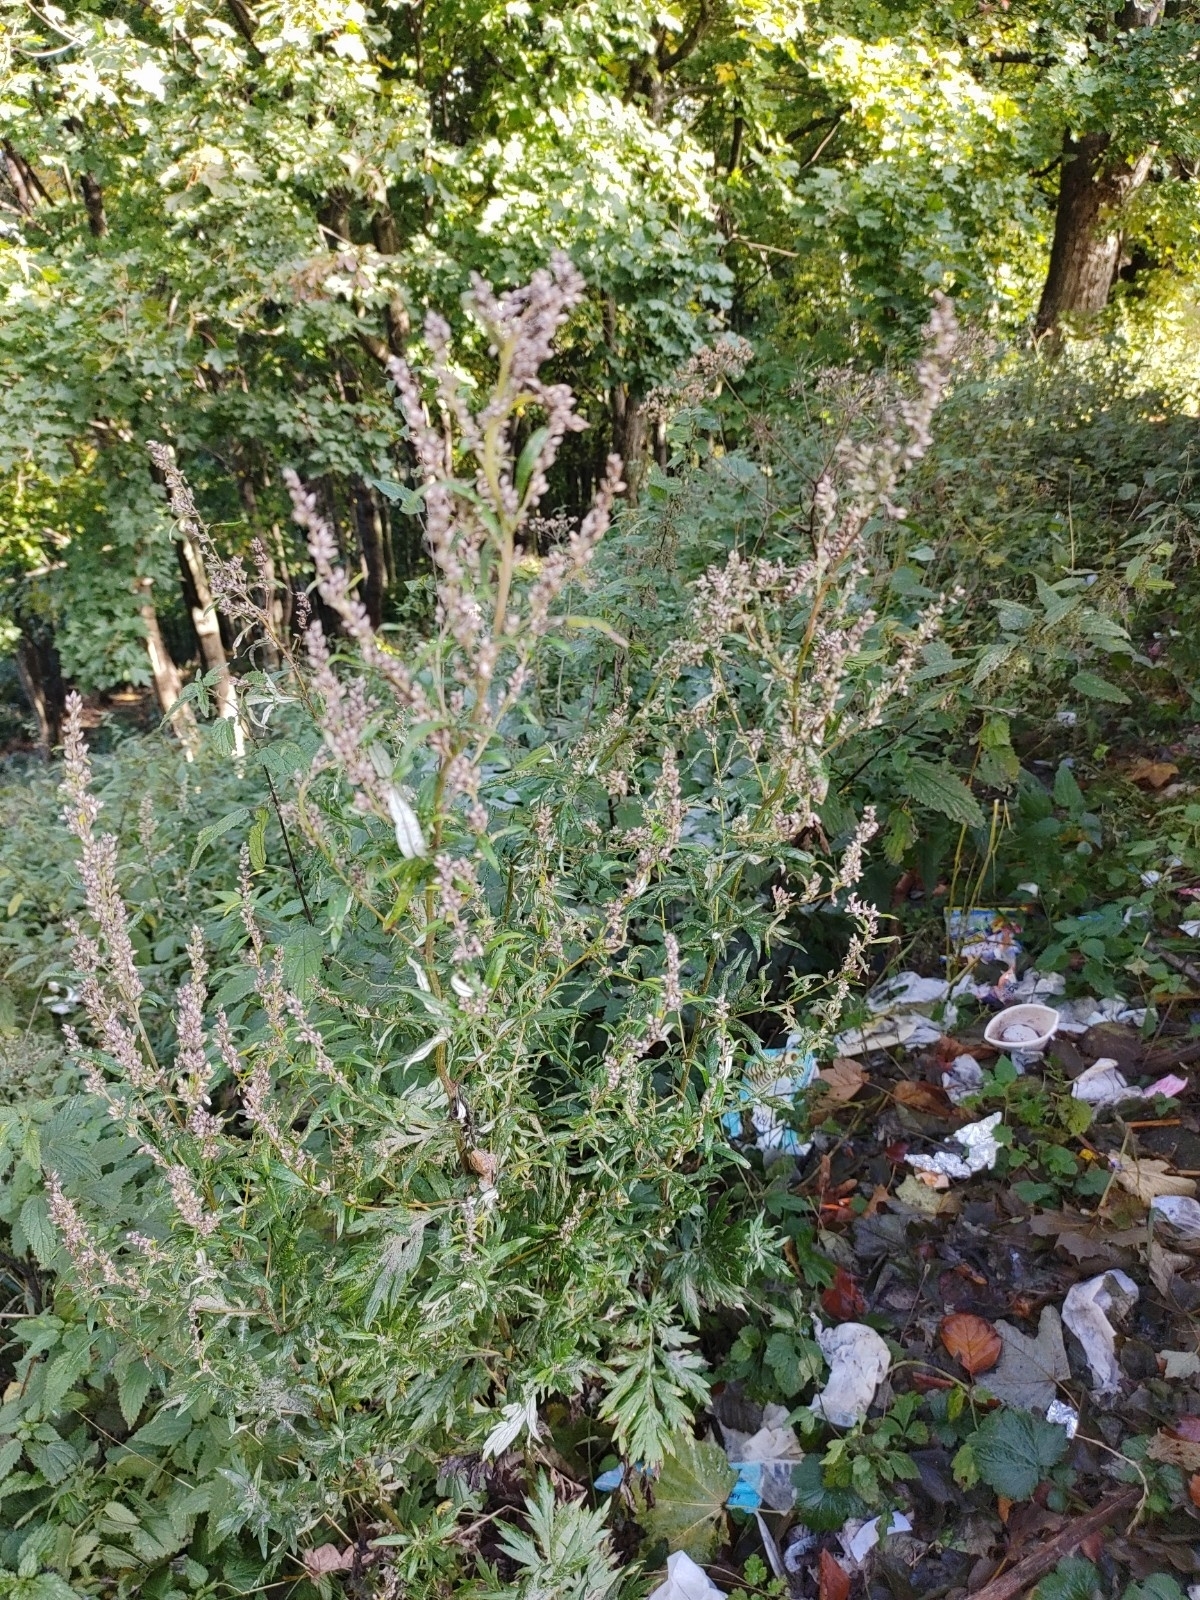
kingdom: Plantae
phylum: Tracheophyta
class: Magnoliopsida
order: Asterales
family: Asteraceae
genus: Artemisia
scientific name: Artemisia vulgaris
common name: Mugwort
